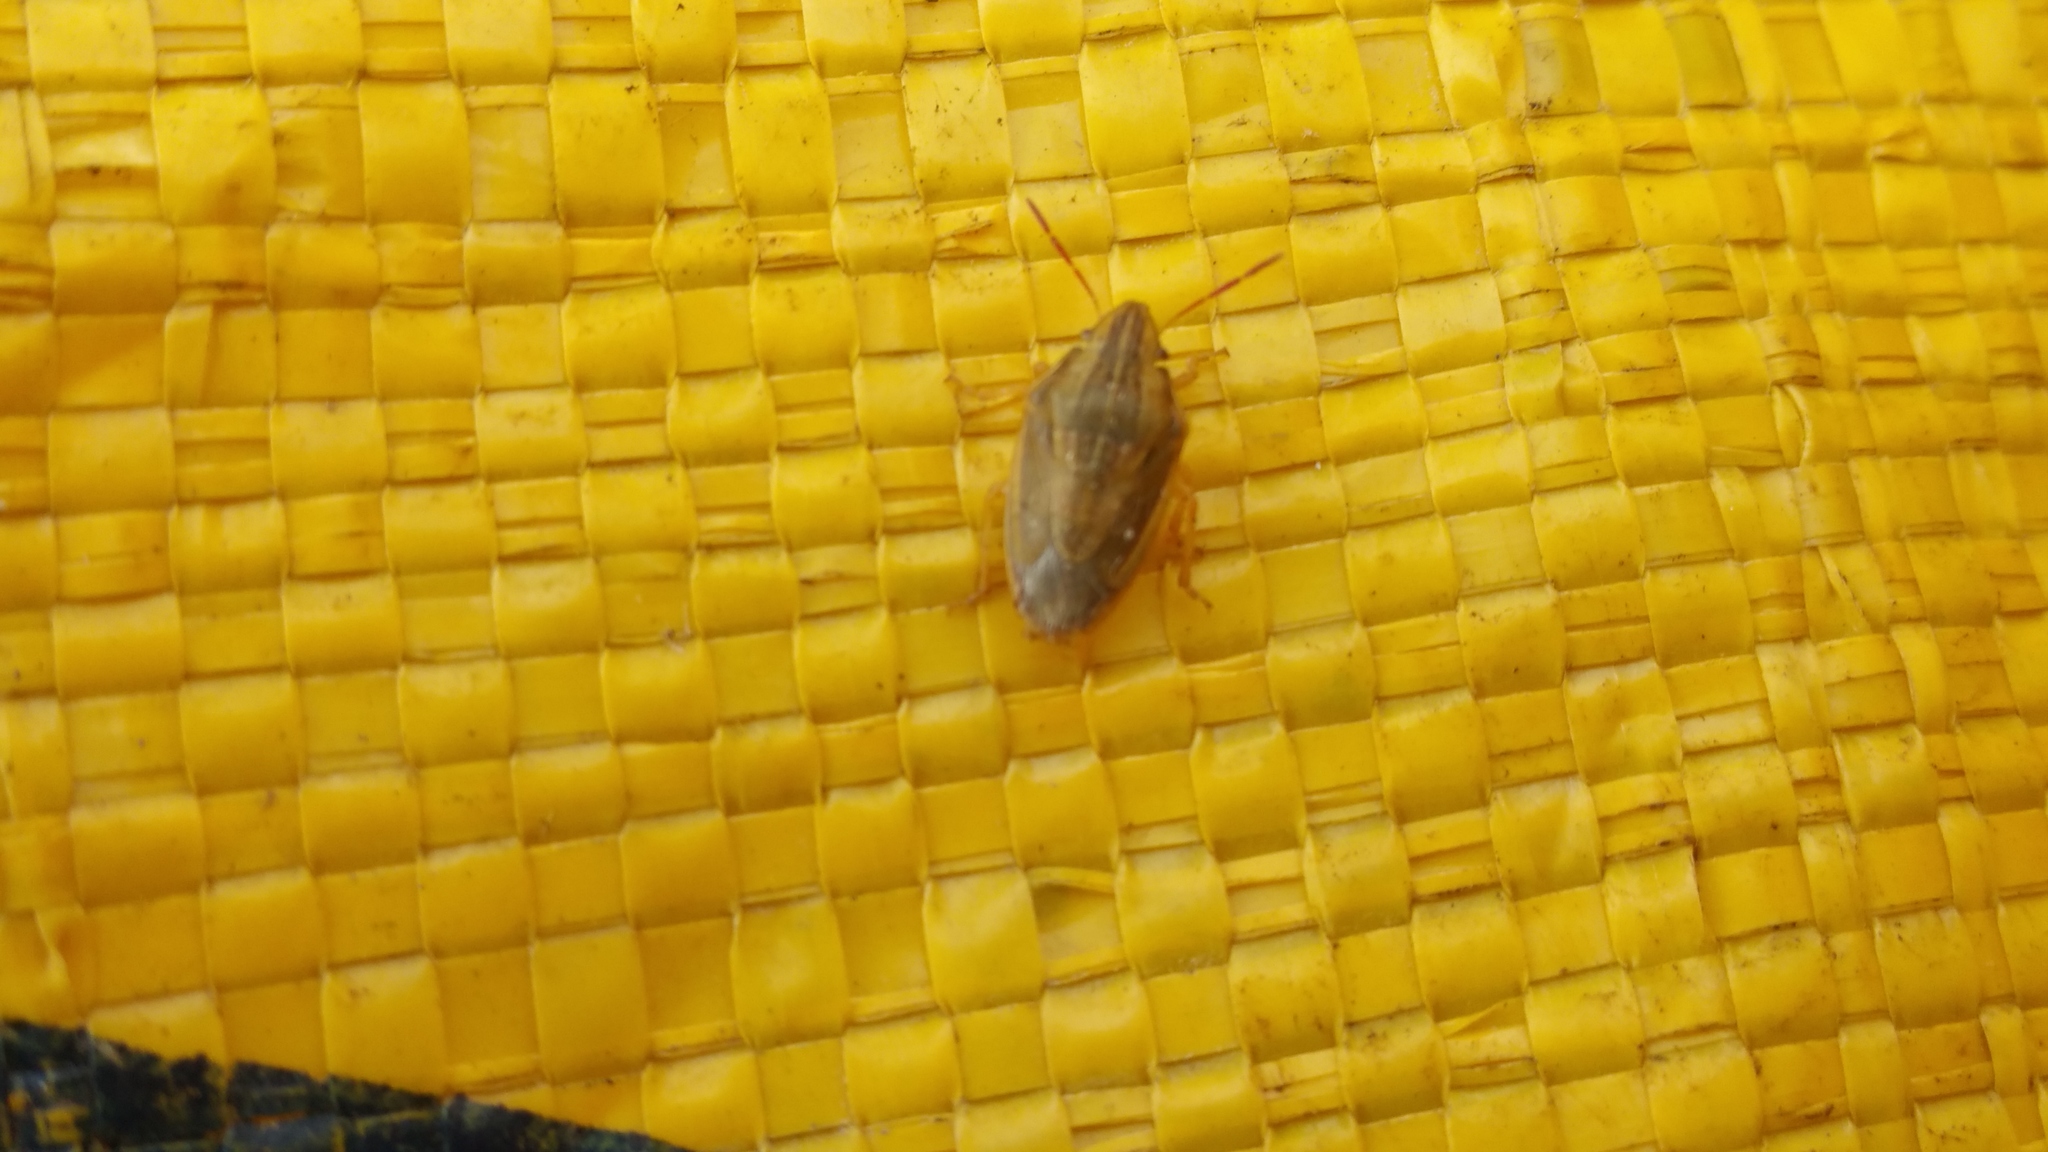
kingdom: Animalia
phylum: Arthropoda
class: Insecta
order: Hemiptera
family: Pentatomidae
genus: Aelia
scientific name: Aelia acuminata
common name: Bishop's mitre
